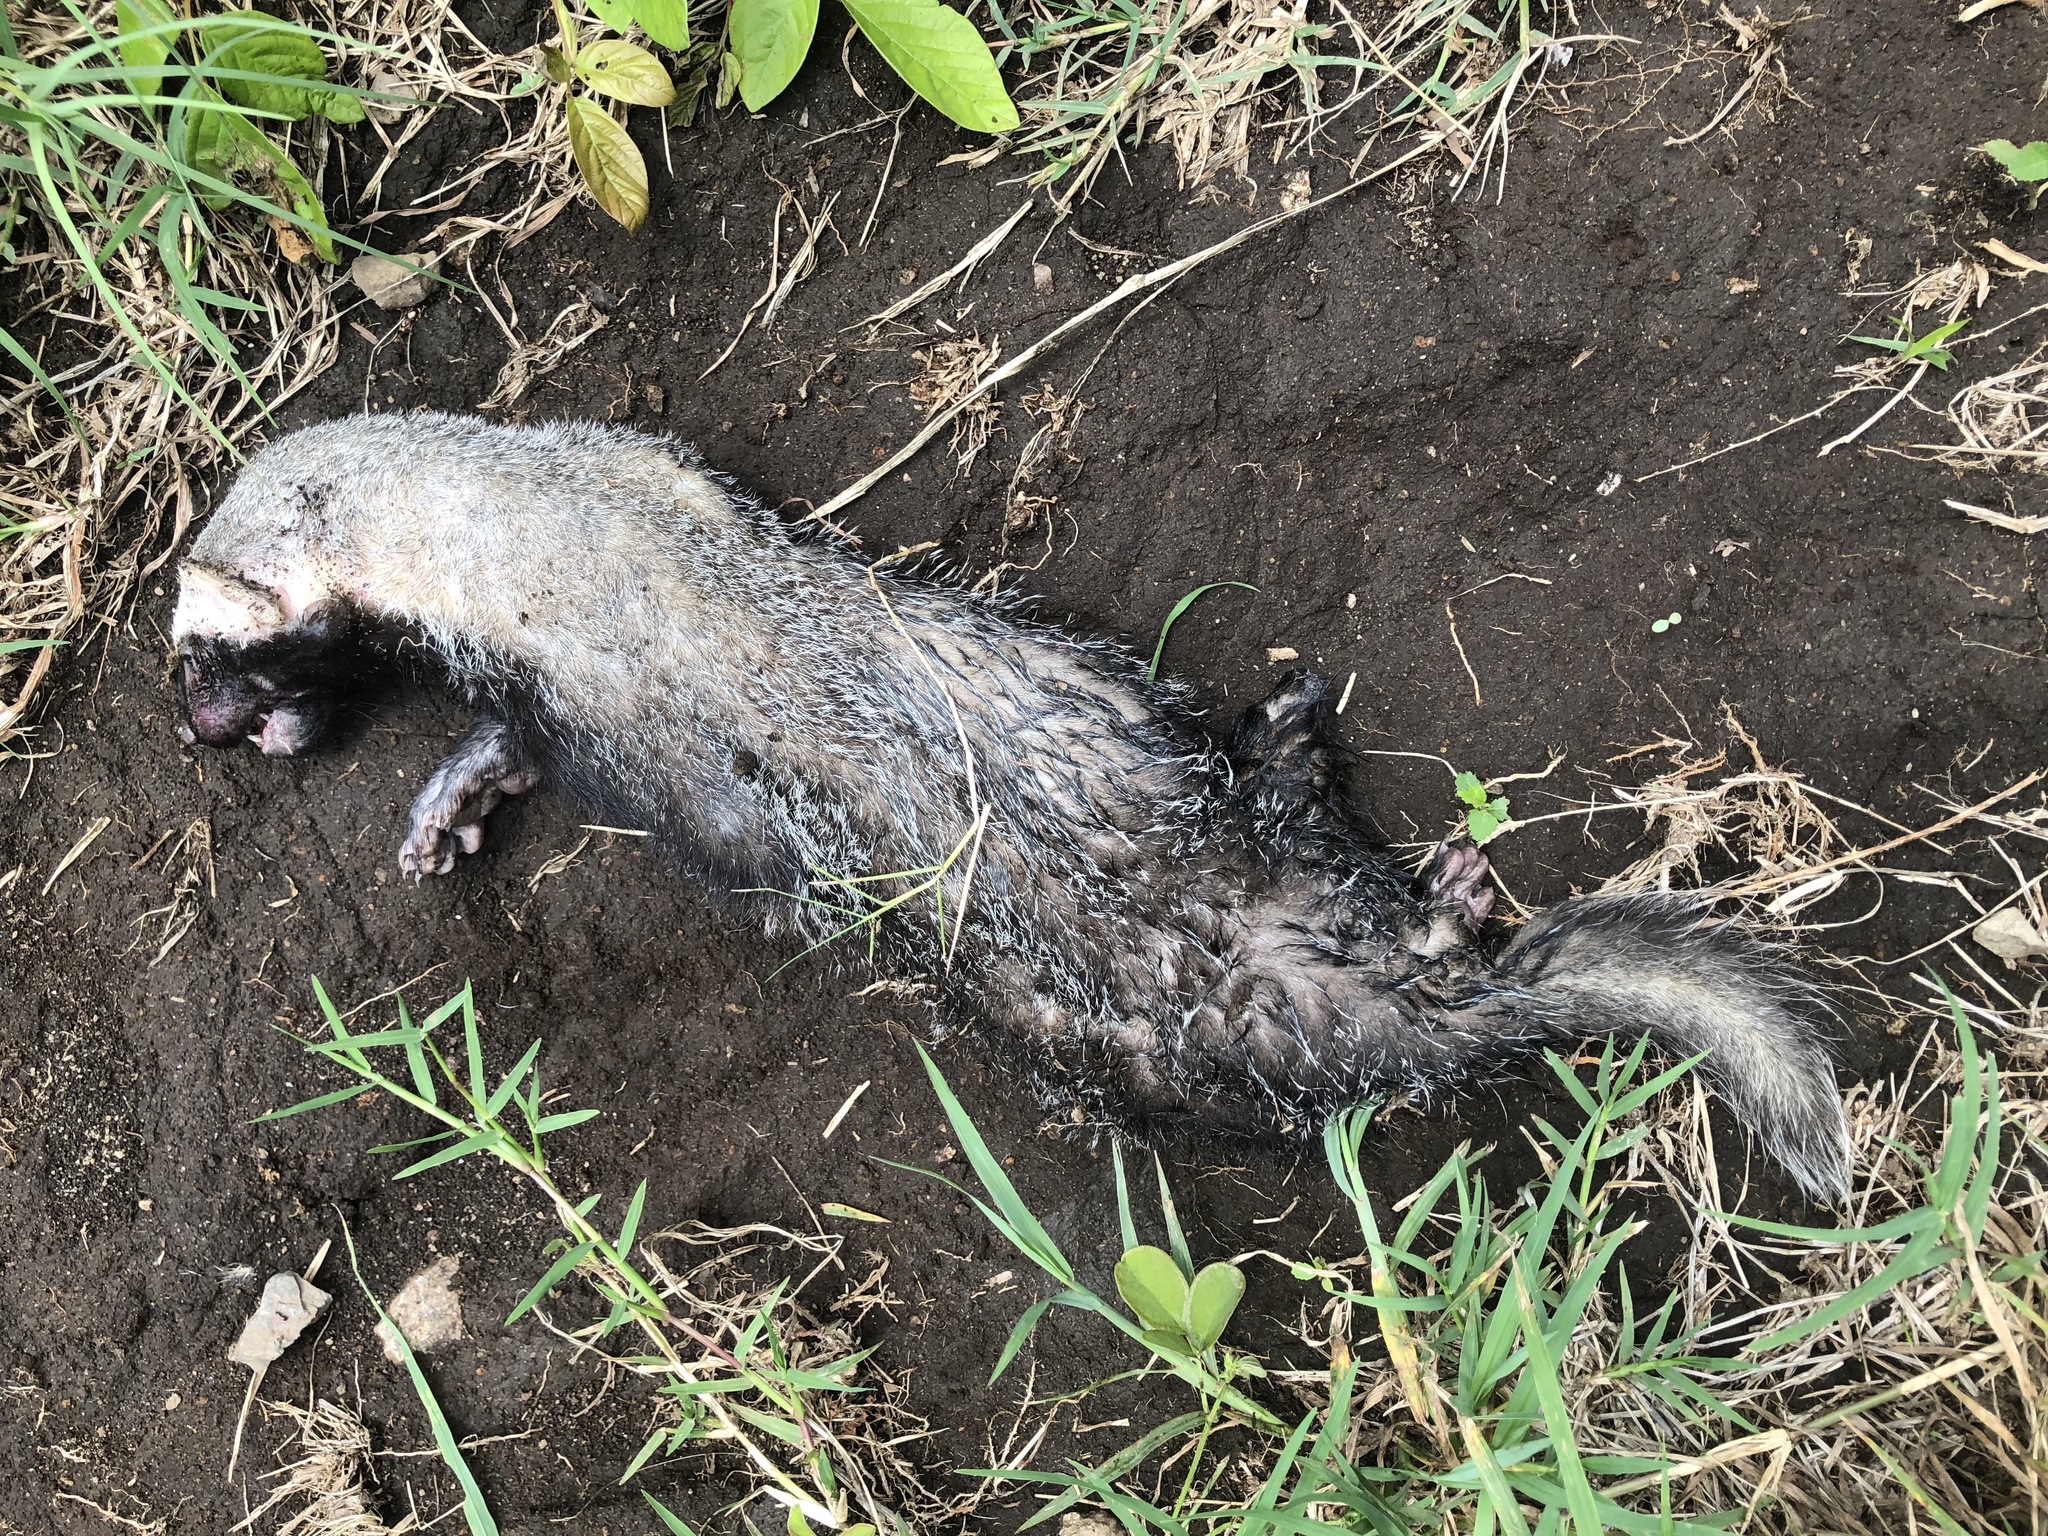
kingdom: Animalia
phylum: Chordata
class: Mammalia
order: Carnivora
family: Mustelidae
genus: Galictis
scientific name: Galictis vittata
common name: Greater grison
